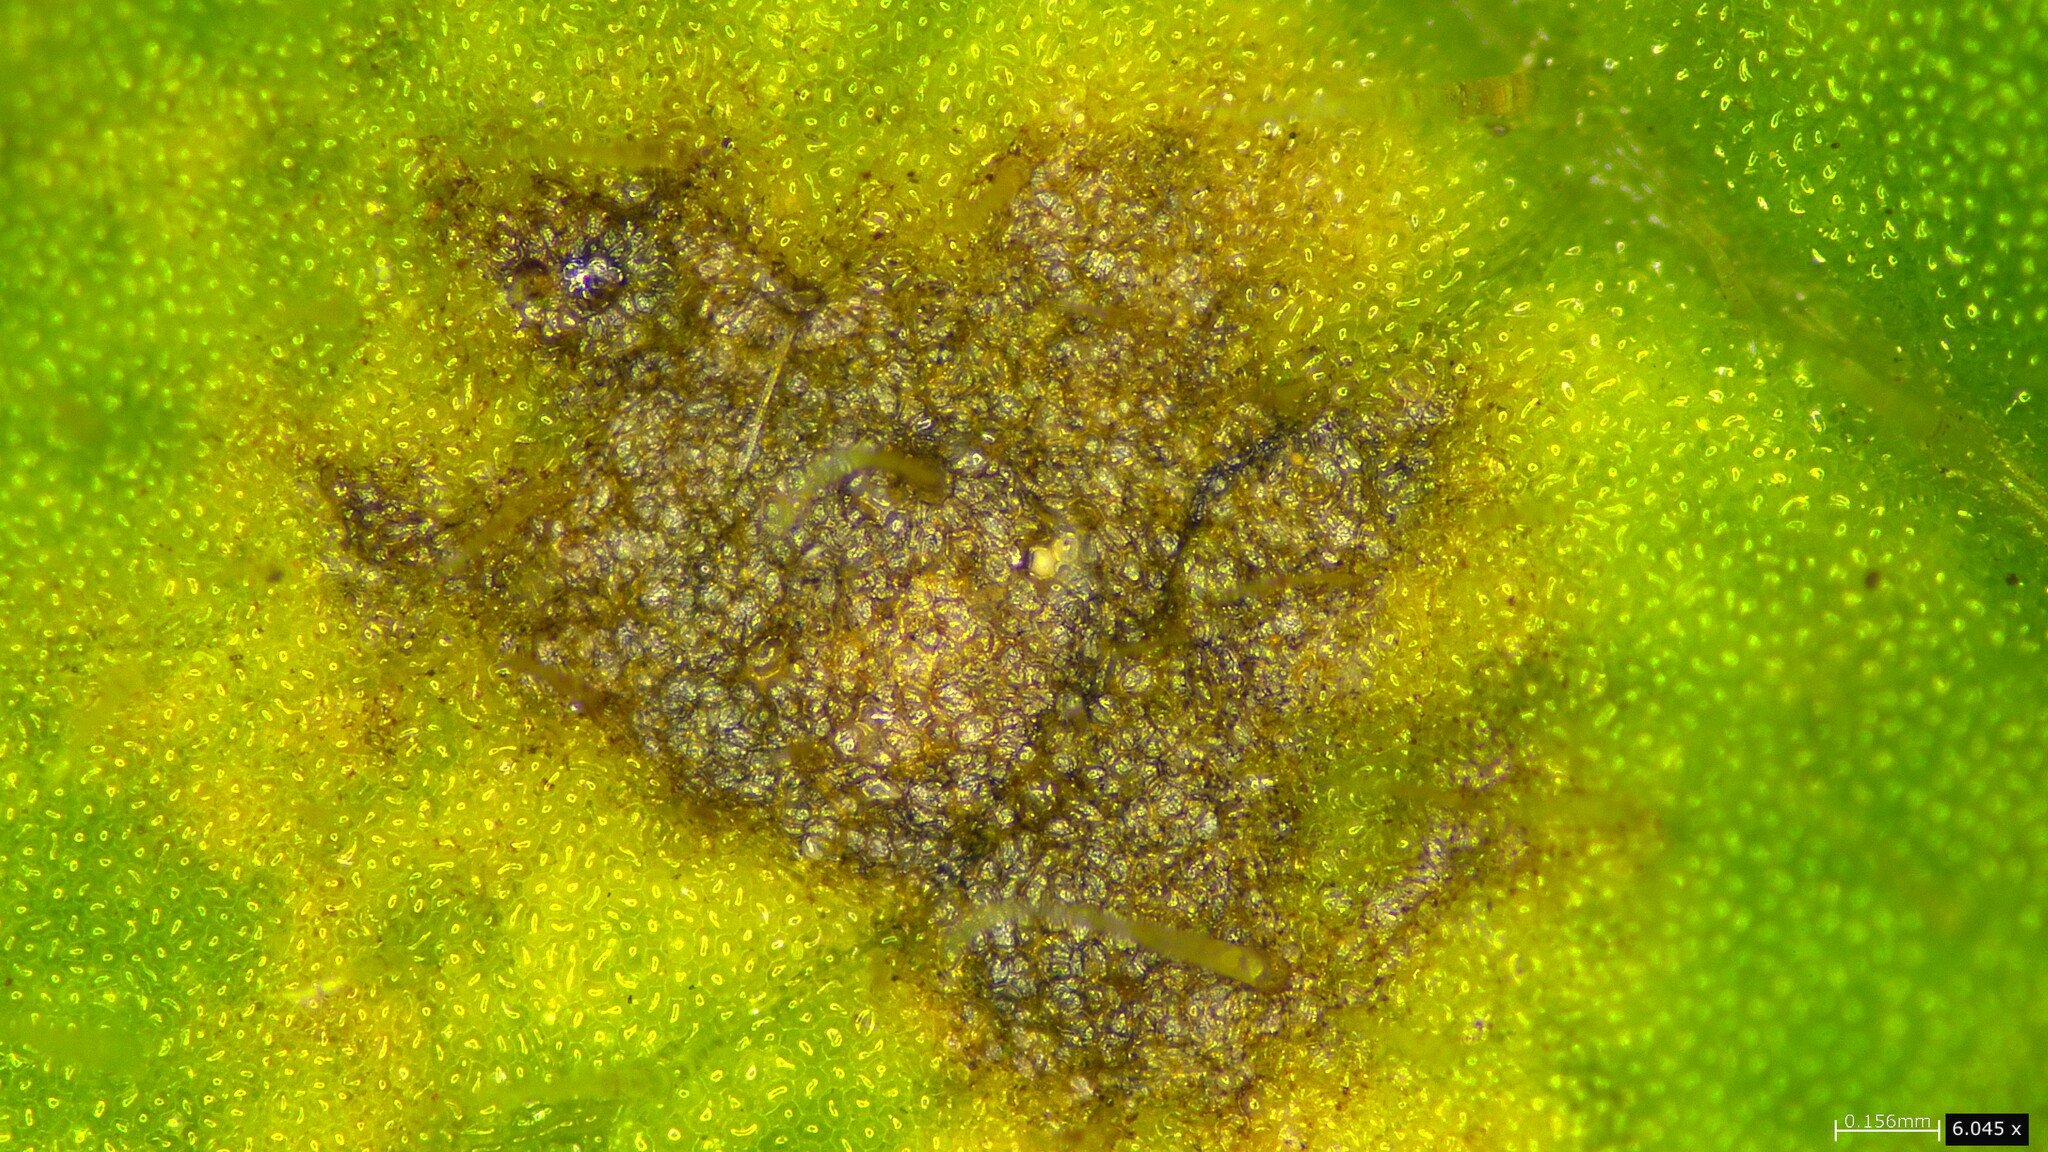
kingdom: Fungi
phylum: Basidiomycota
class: Pucciniomycetes
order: Pucciniales
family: Coleosporiaceae
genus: Coleosporium
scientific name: Coleosporium campanulae
